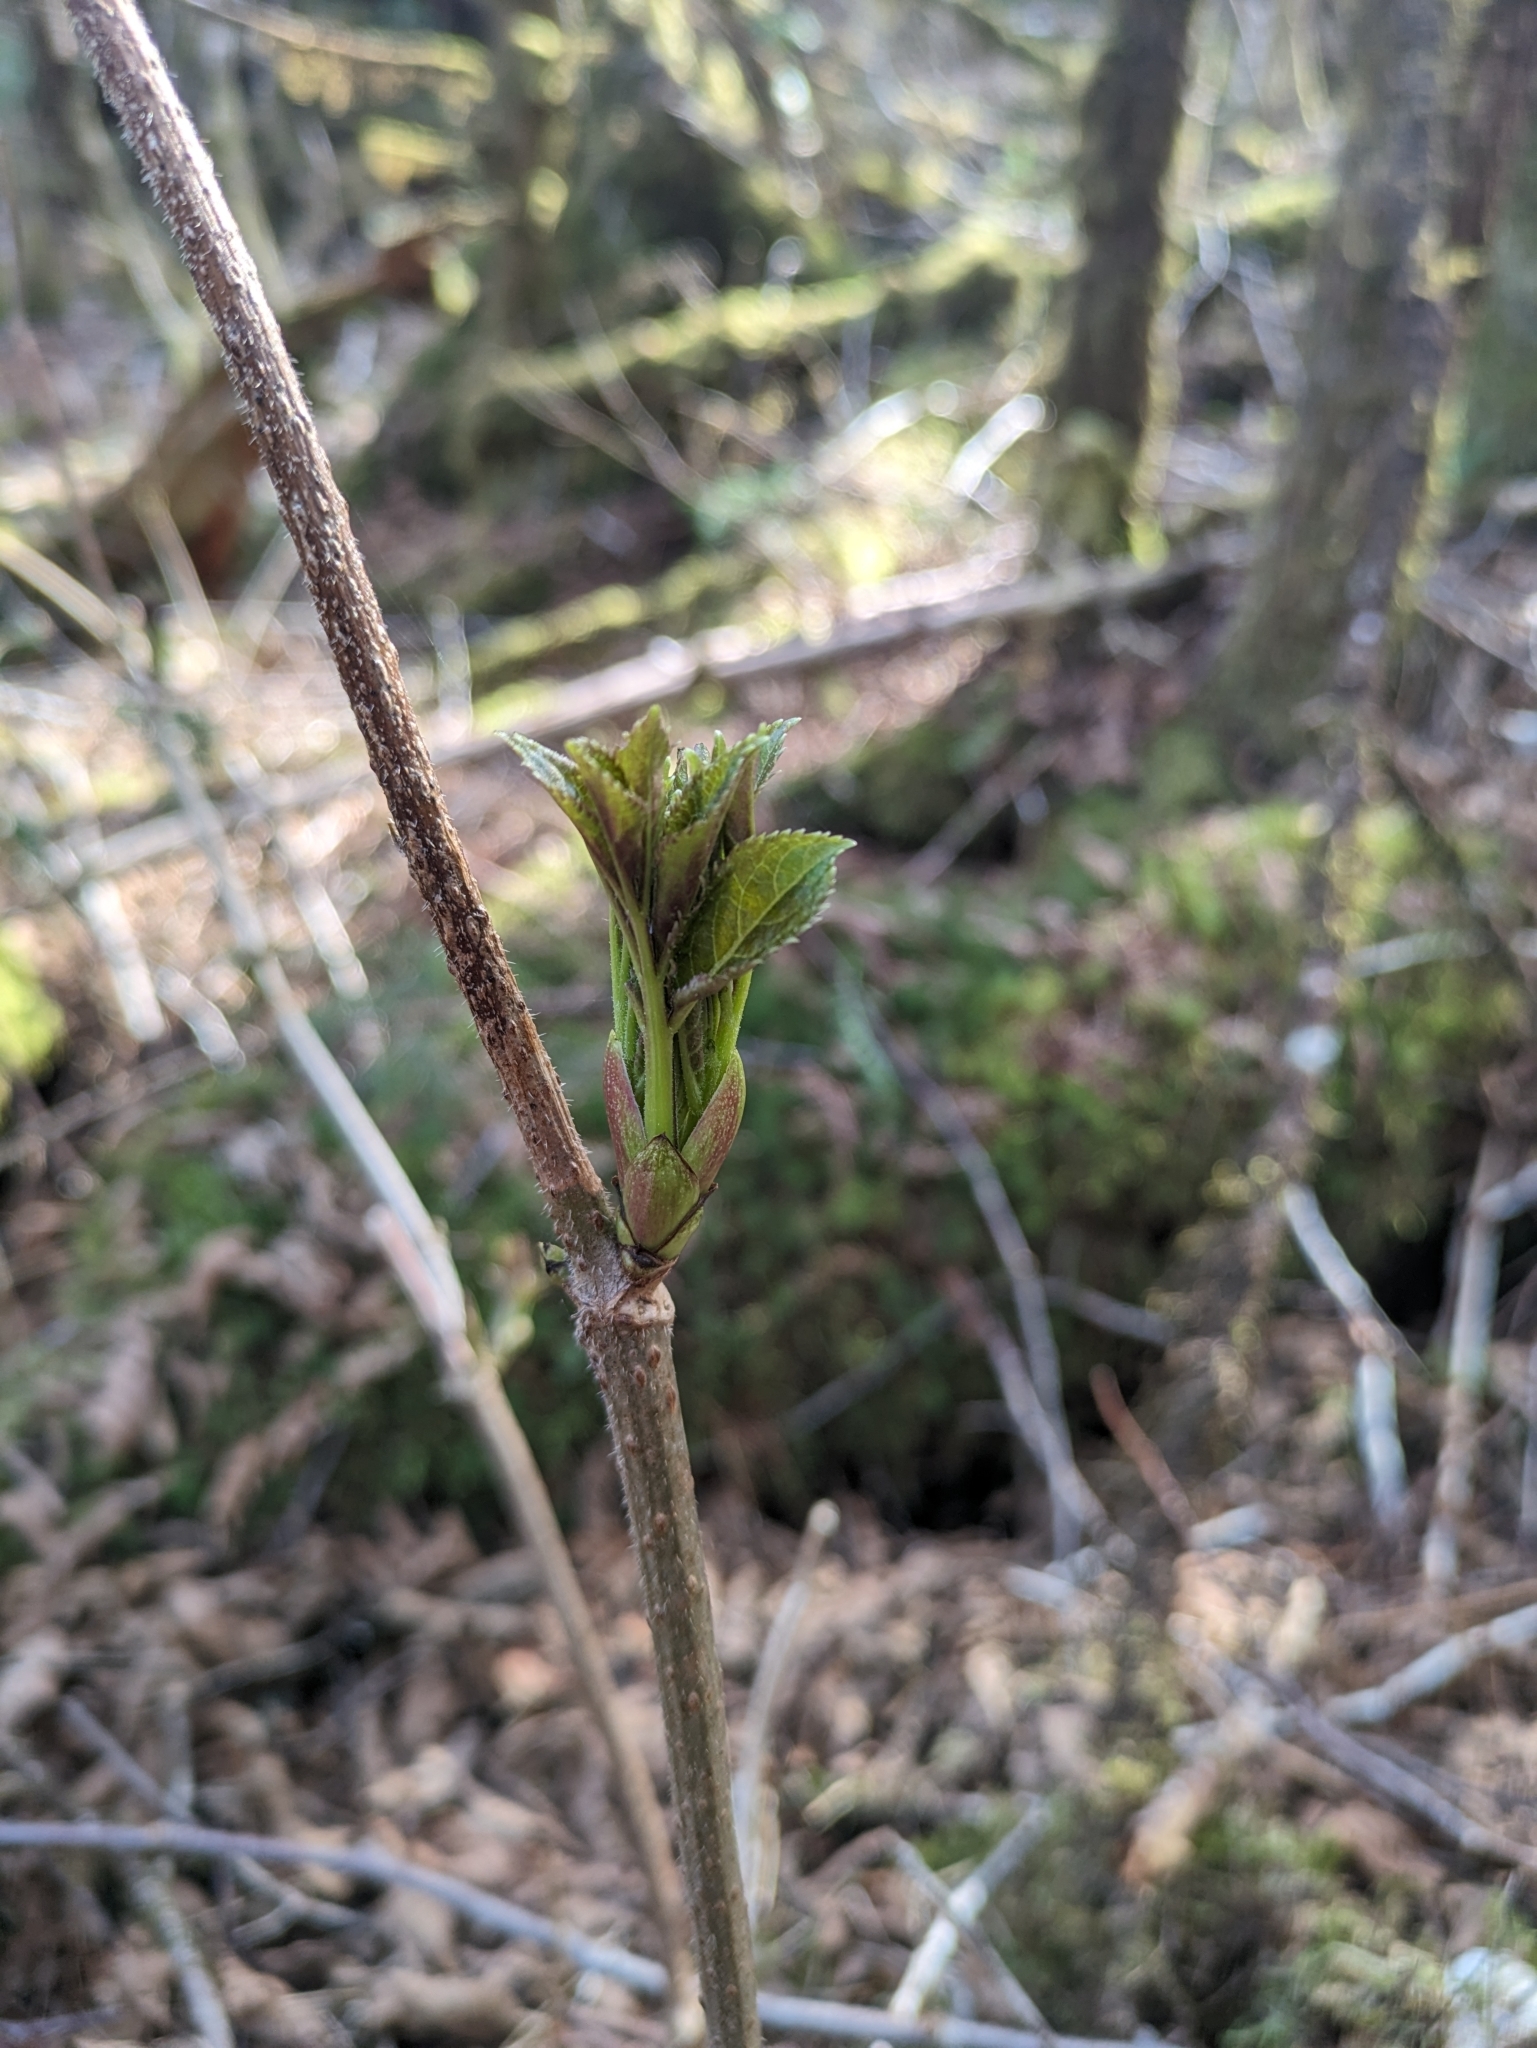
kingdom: Plantae
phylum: Tracheophyta
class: Magnoliopsida
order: Dipsacales
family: Viburnaceae
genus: Sambucus
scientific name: Sambucus racemosa
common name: Red-berried elder
